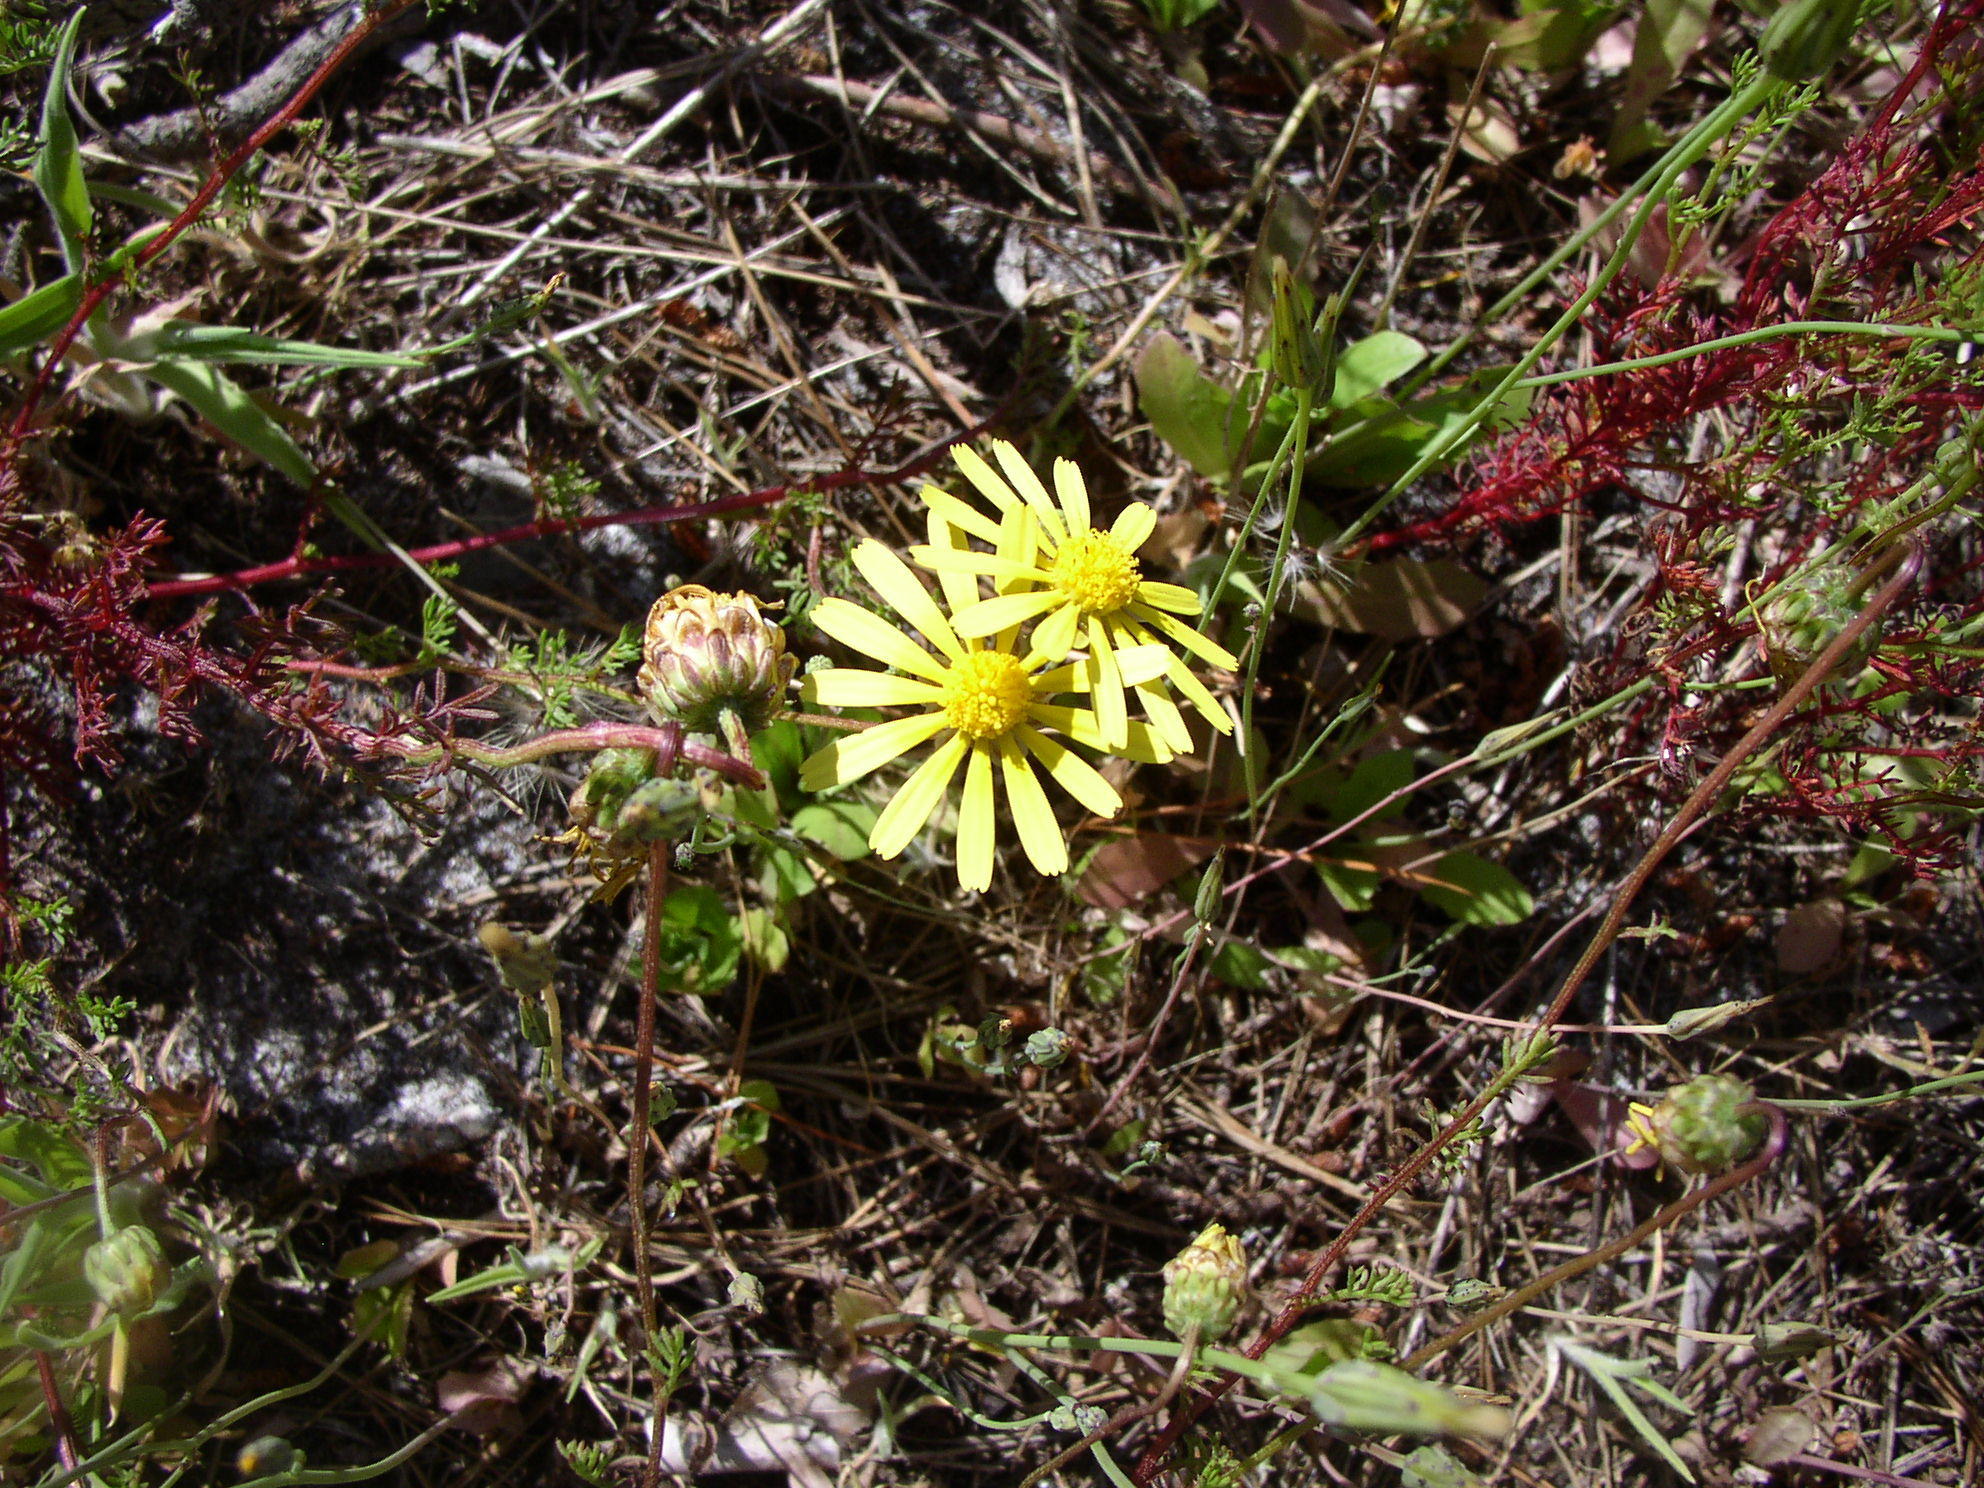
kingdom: Plantae
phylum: Tracheophyta
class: Magnoliopsida
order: Asterales
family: Asteraceae
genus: Ursinia
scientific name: Ursinia anthemoides
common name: Ursinia
